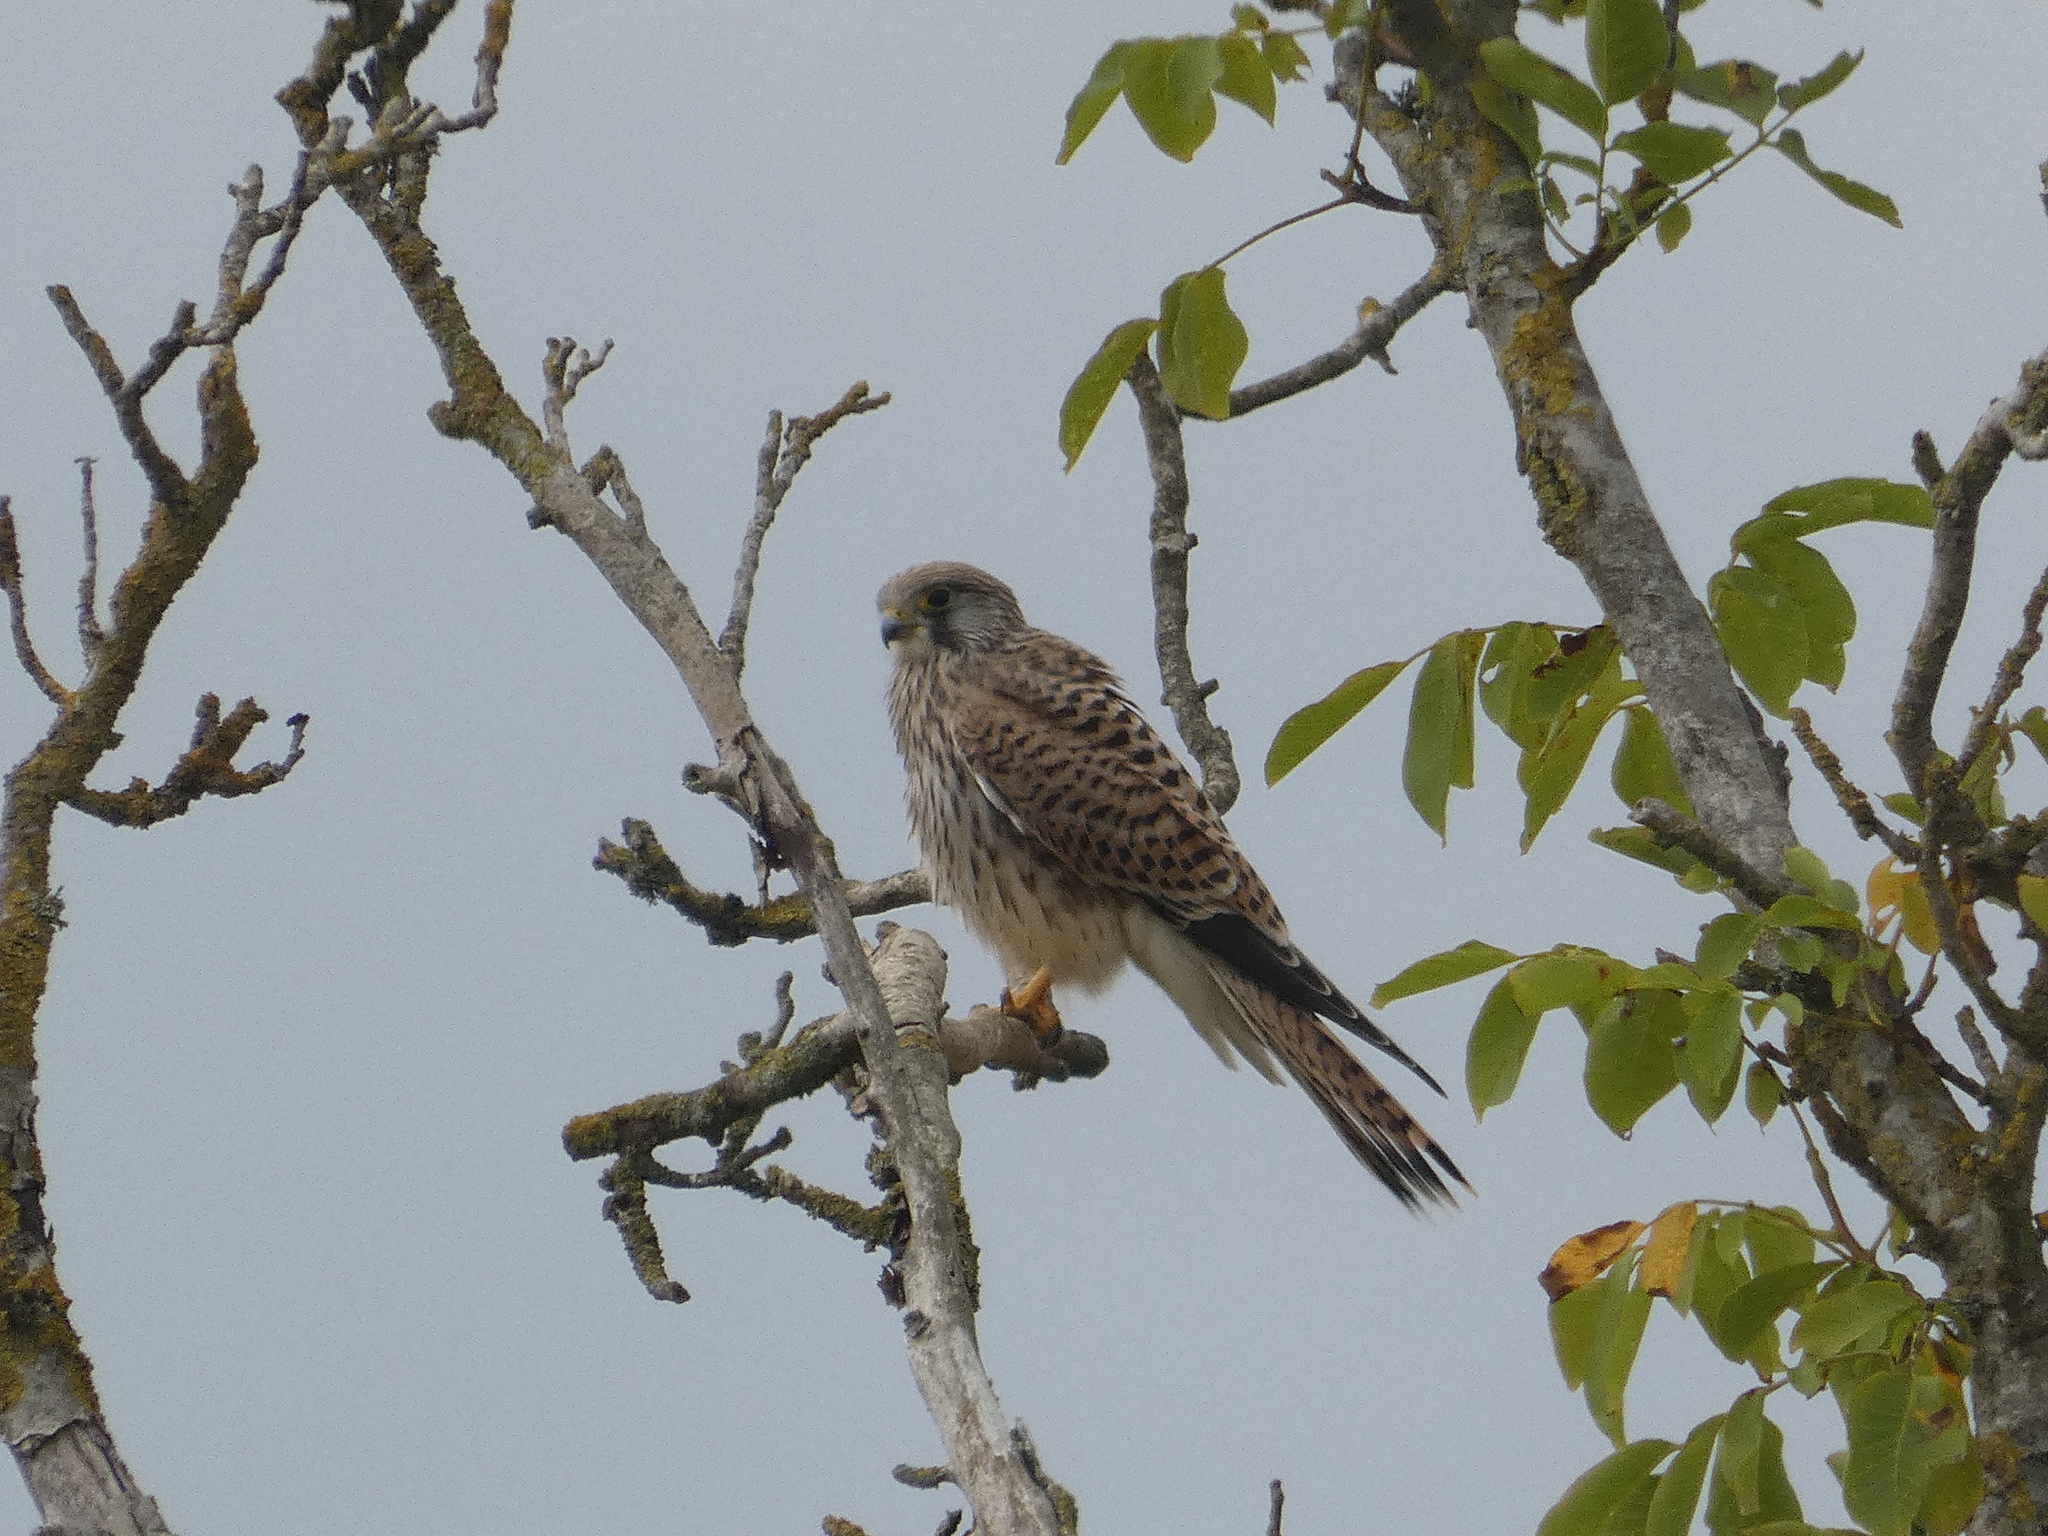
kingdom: Animalia
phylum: Chordata
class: Aves
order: Falconiformes
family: Falconidae
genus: Falco
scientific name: Falco tinnunculus
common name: Common kestrel
